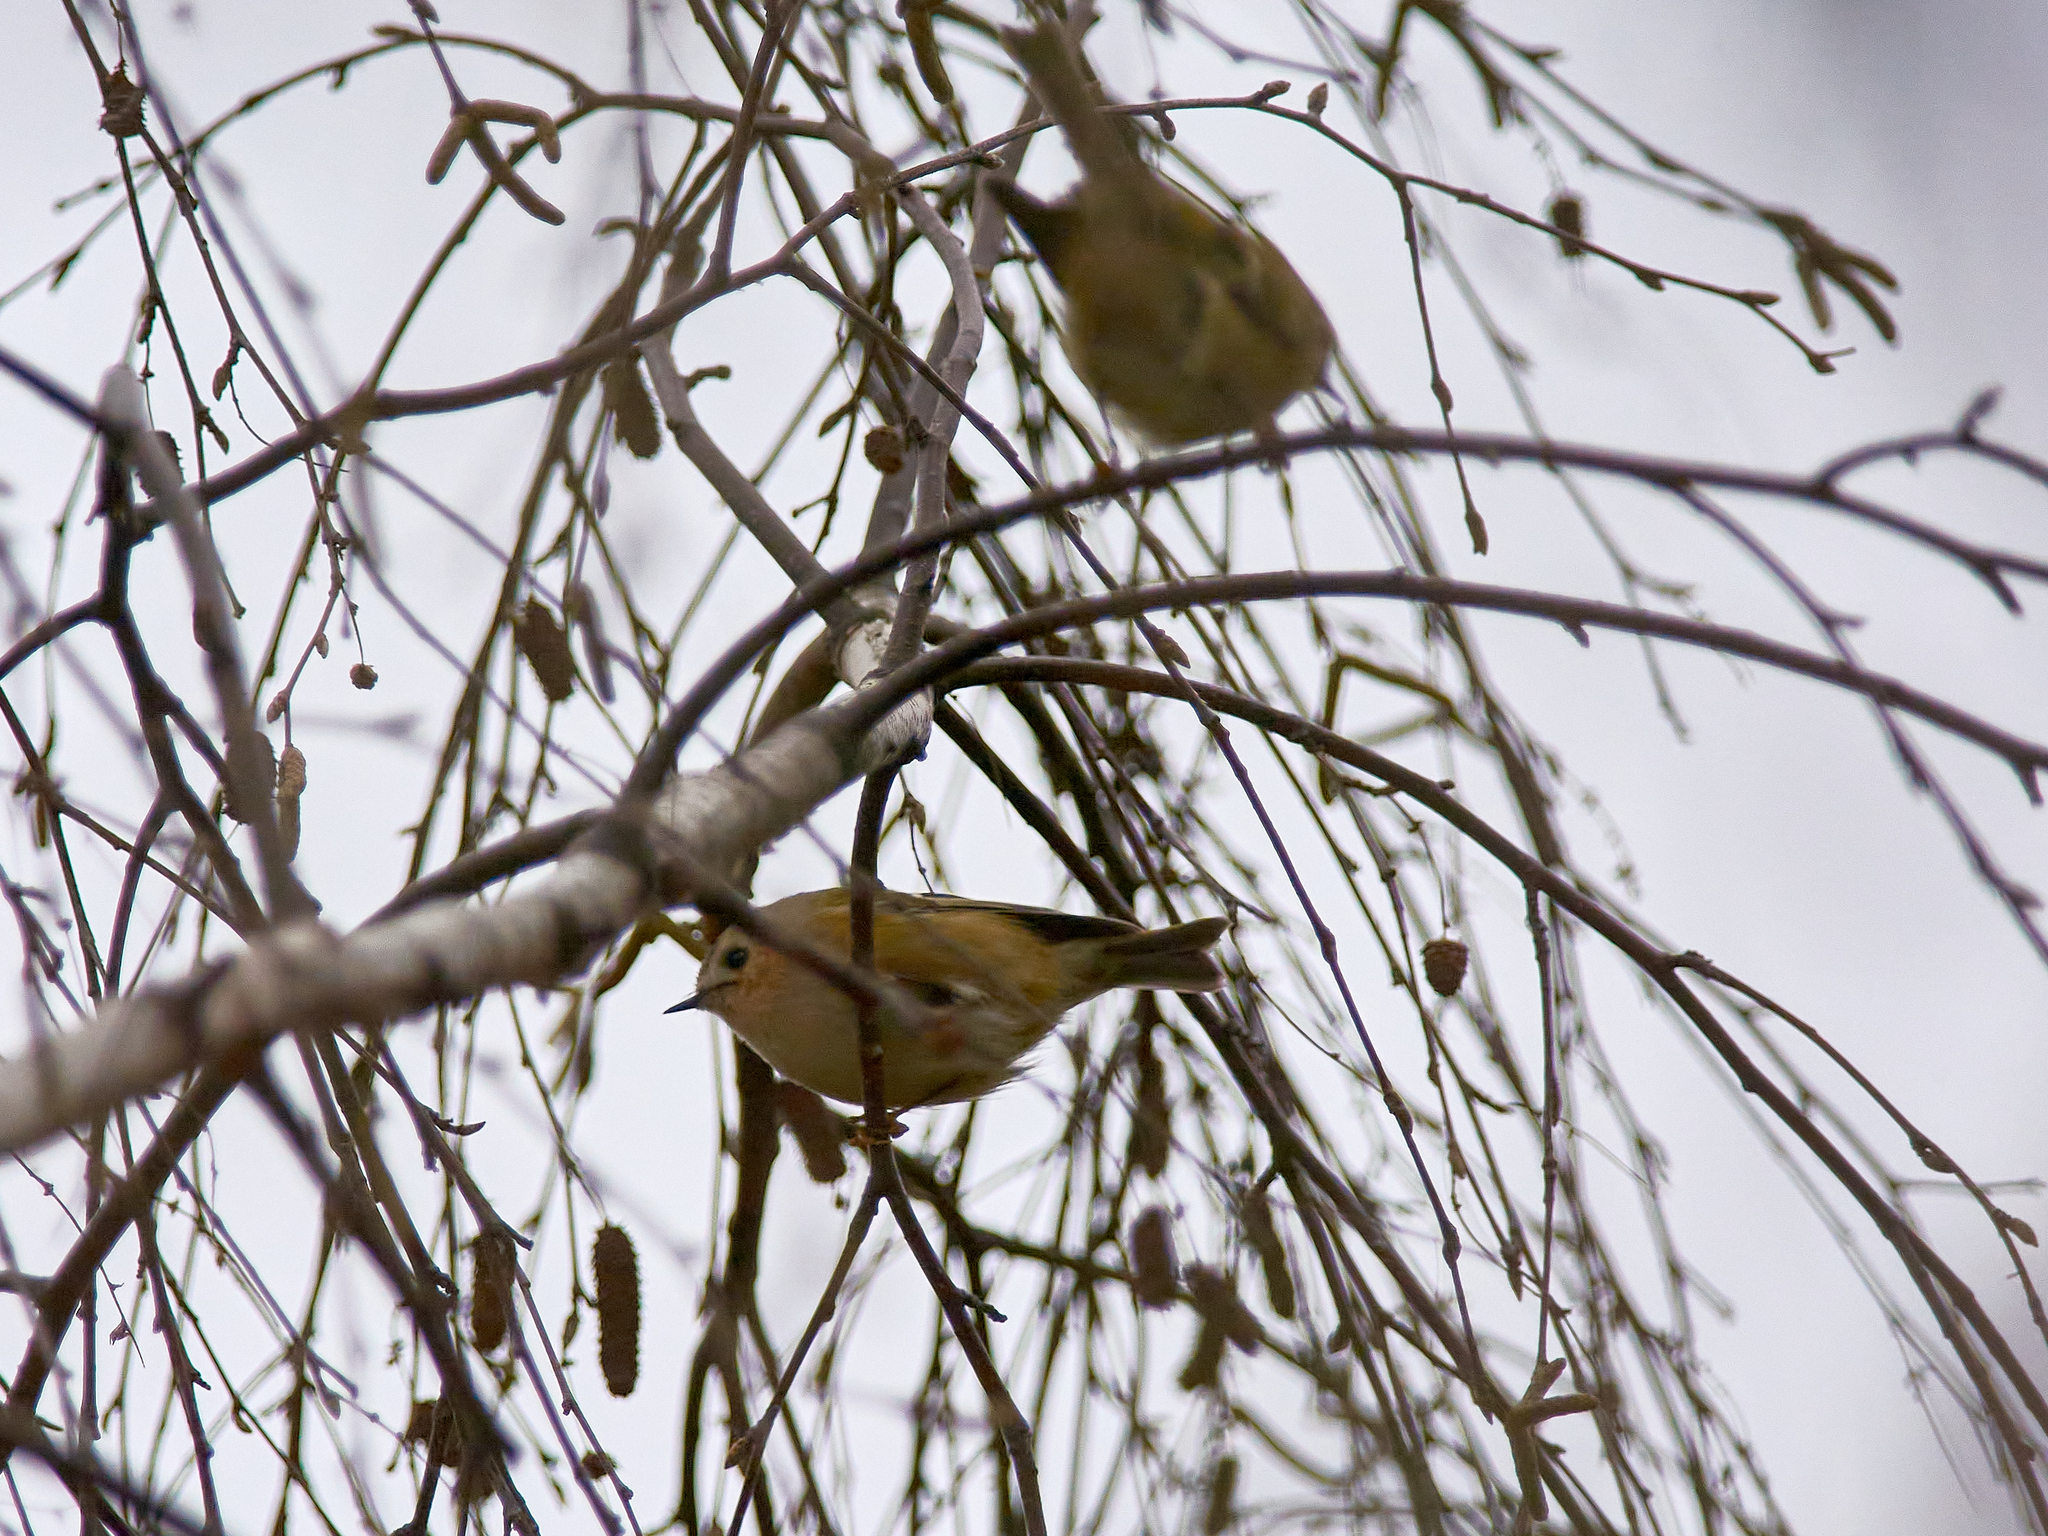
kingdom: Animalia
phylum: Chordata
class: Aves
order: Passeriformes
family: Regulidae
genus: Regulus
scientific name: Regulus regulus
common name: Goldcrest
